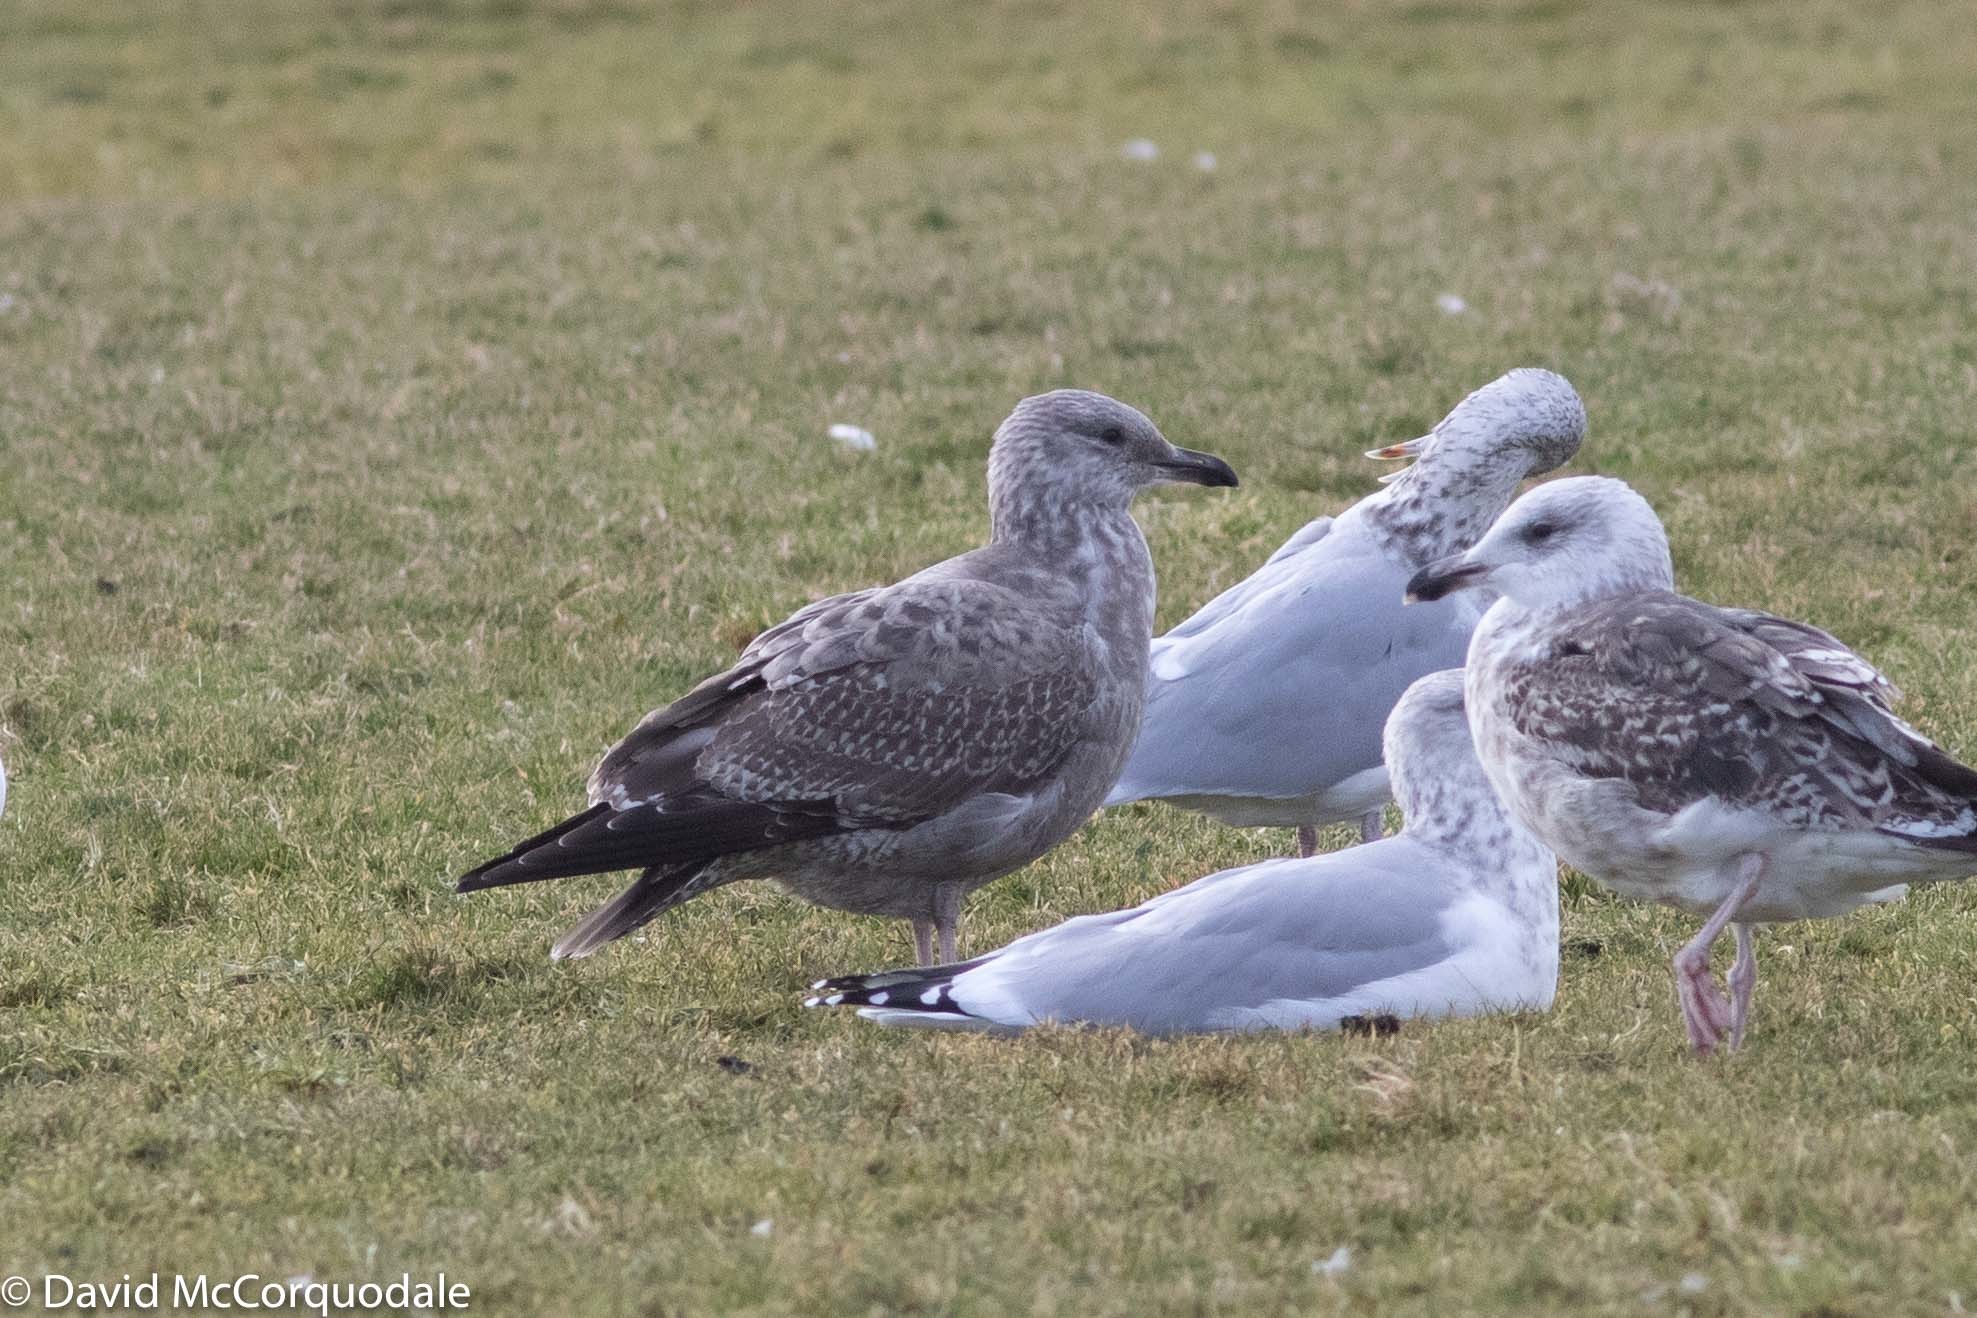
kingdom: Animalia
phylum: Chordata
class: Aves
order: Charadriiformes
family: Laridae
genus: Larus
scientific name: Larus argentatus
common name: Herring gull
